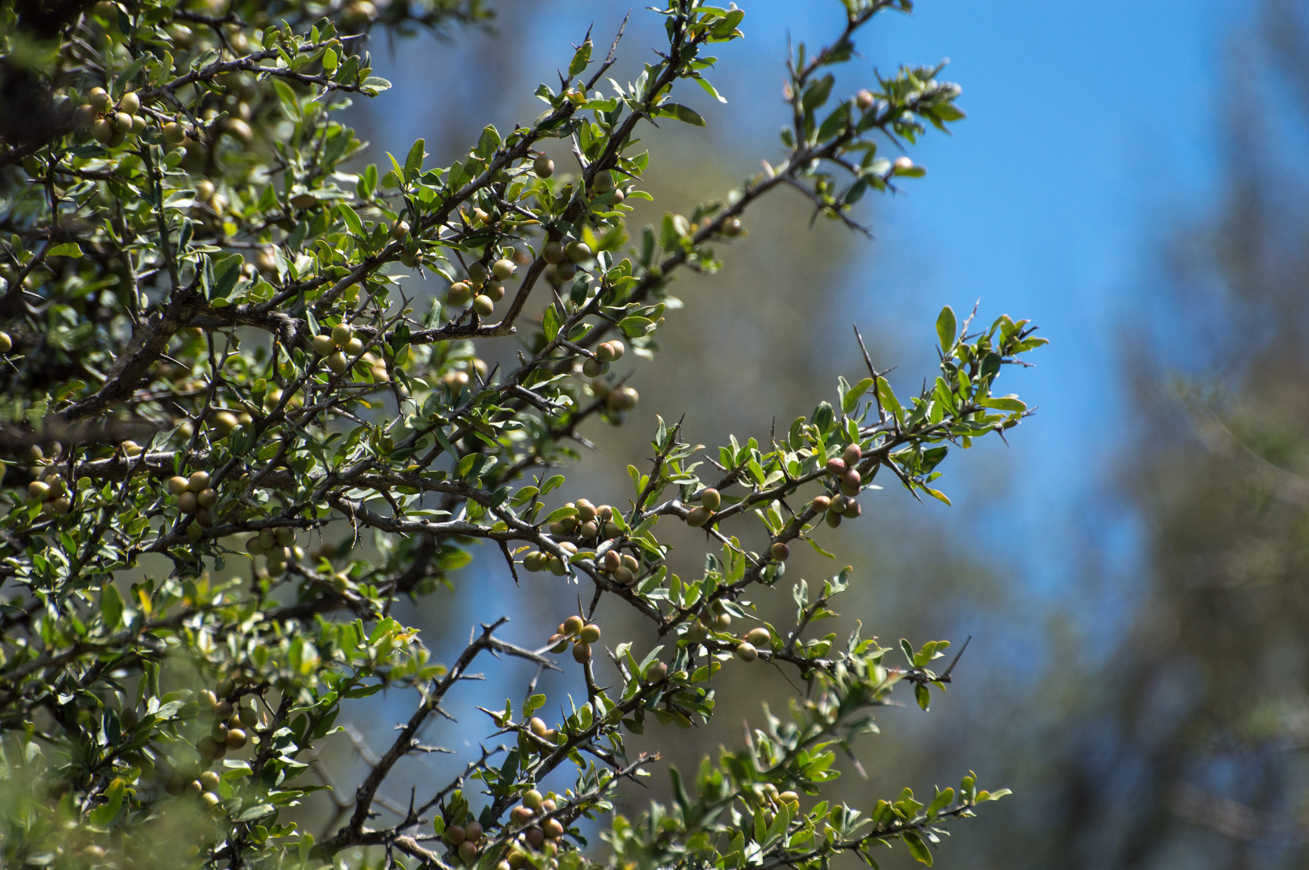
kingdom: Plantae
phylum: Tracheophyta
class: Magnoliopsida
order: Sapindales
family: Simaroubaceae
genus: Castela
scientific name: Castela coccinea
